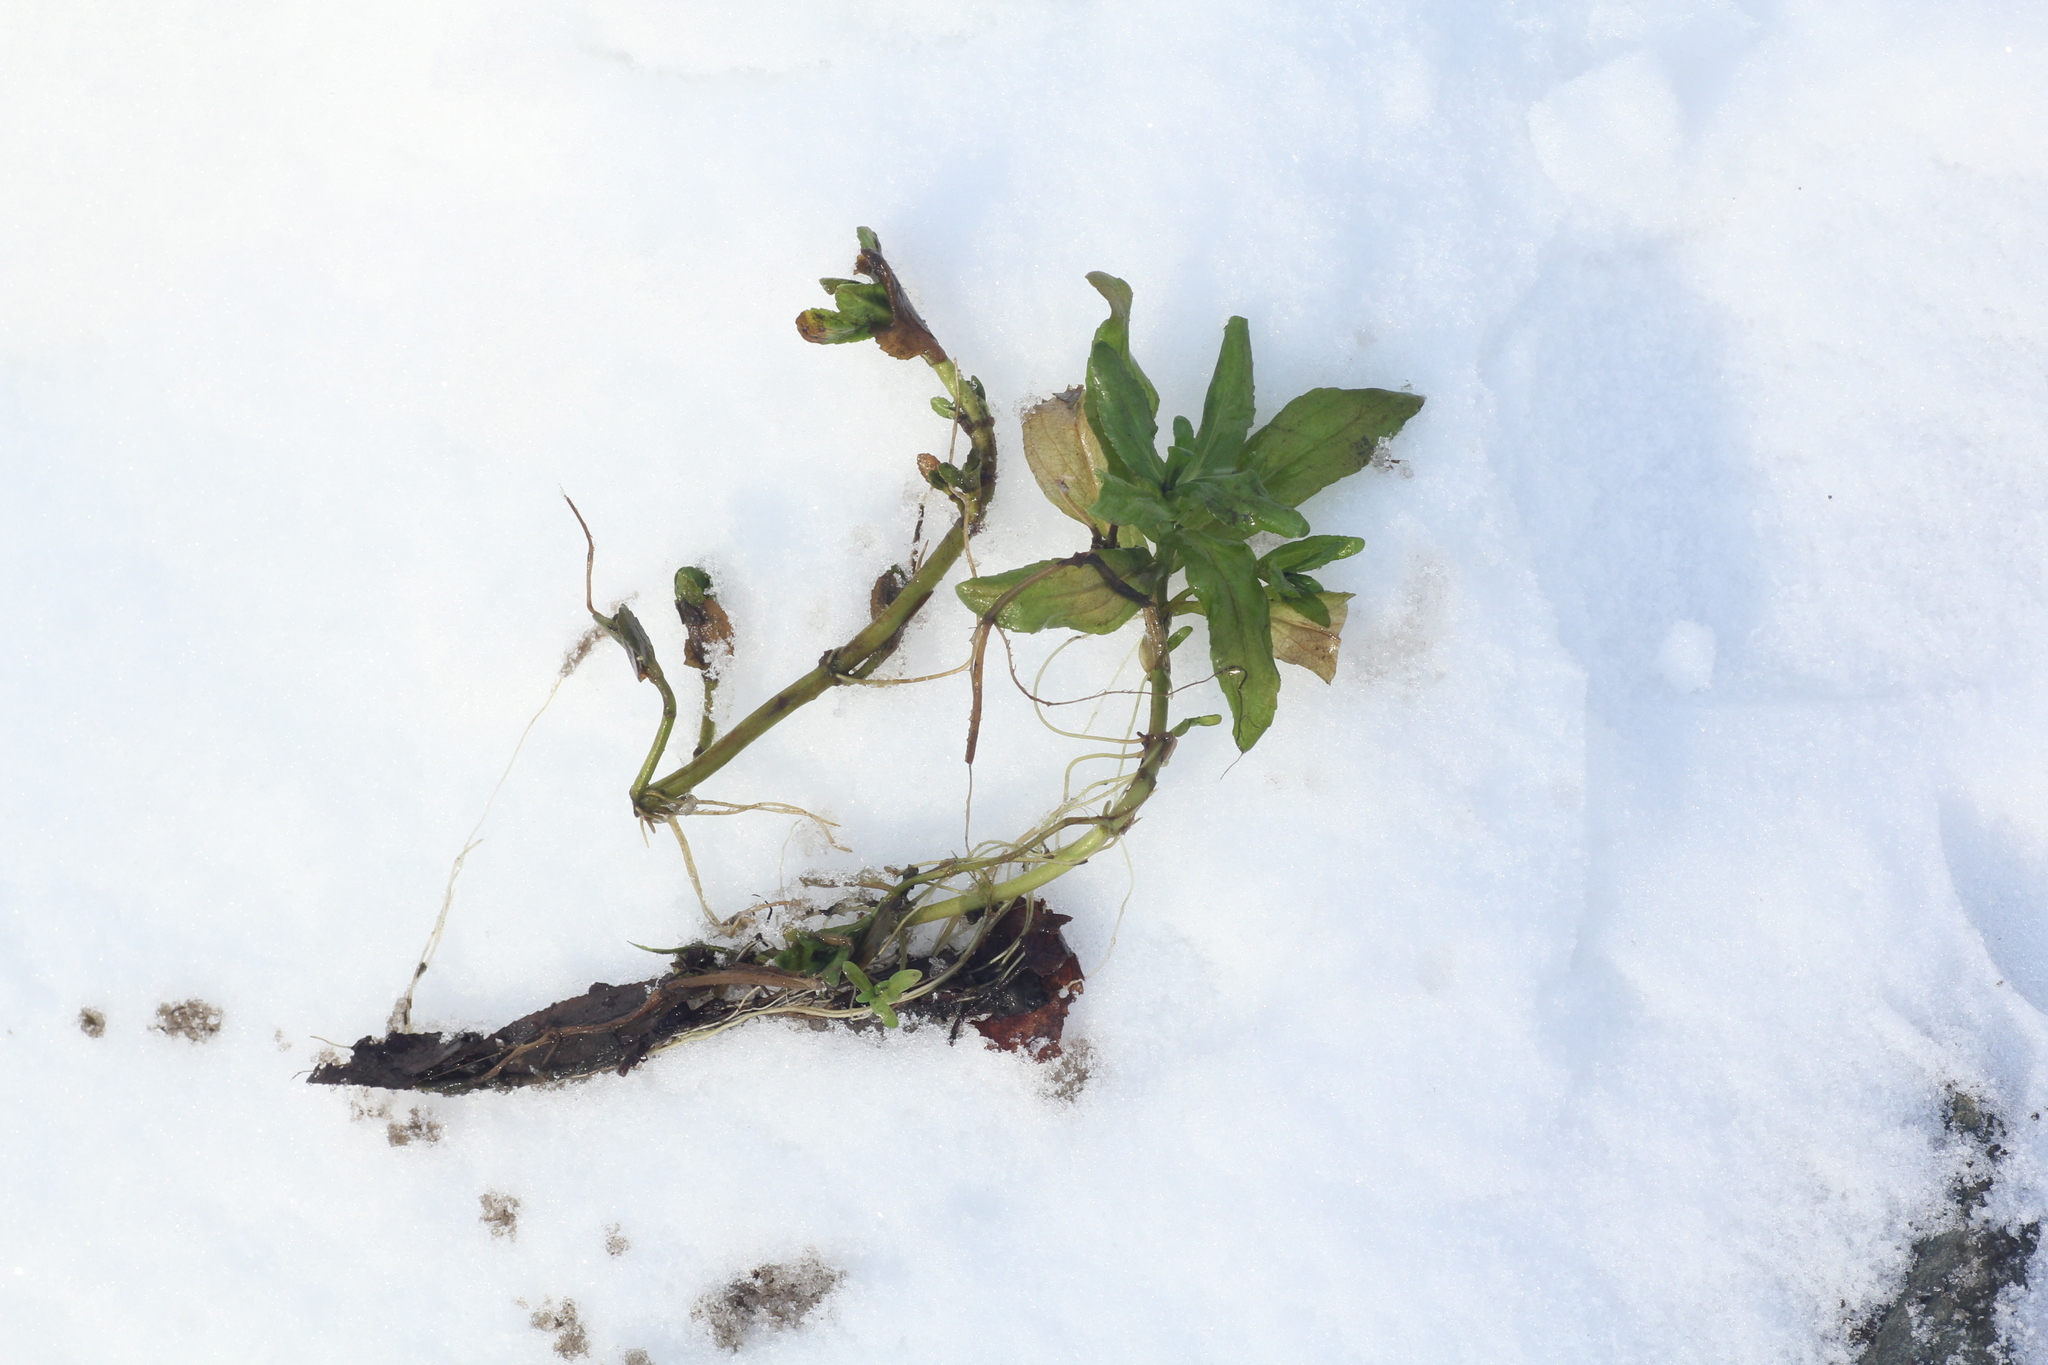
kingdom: Plantae
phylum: Tracheophyta
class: Magnoliopsida
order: Lamiales
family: Plantaginaceae
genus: Veronica
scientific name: Veronica anagallis-aquatica
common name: Water speedwell
